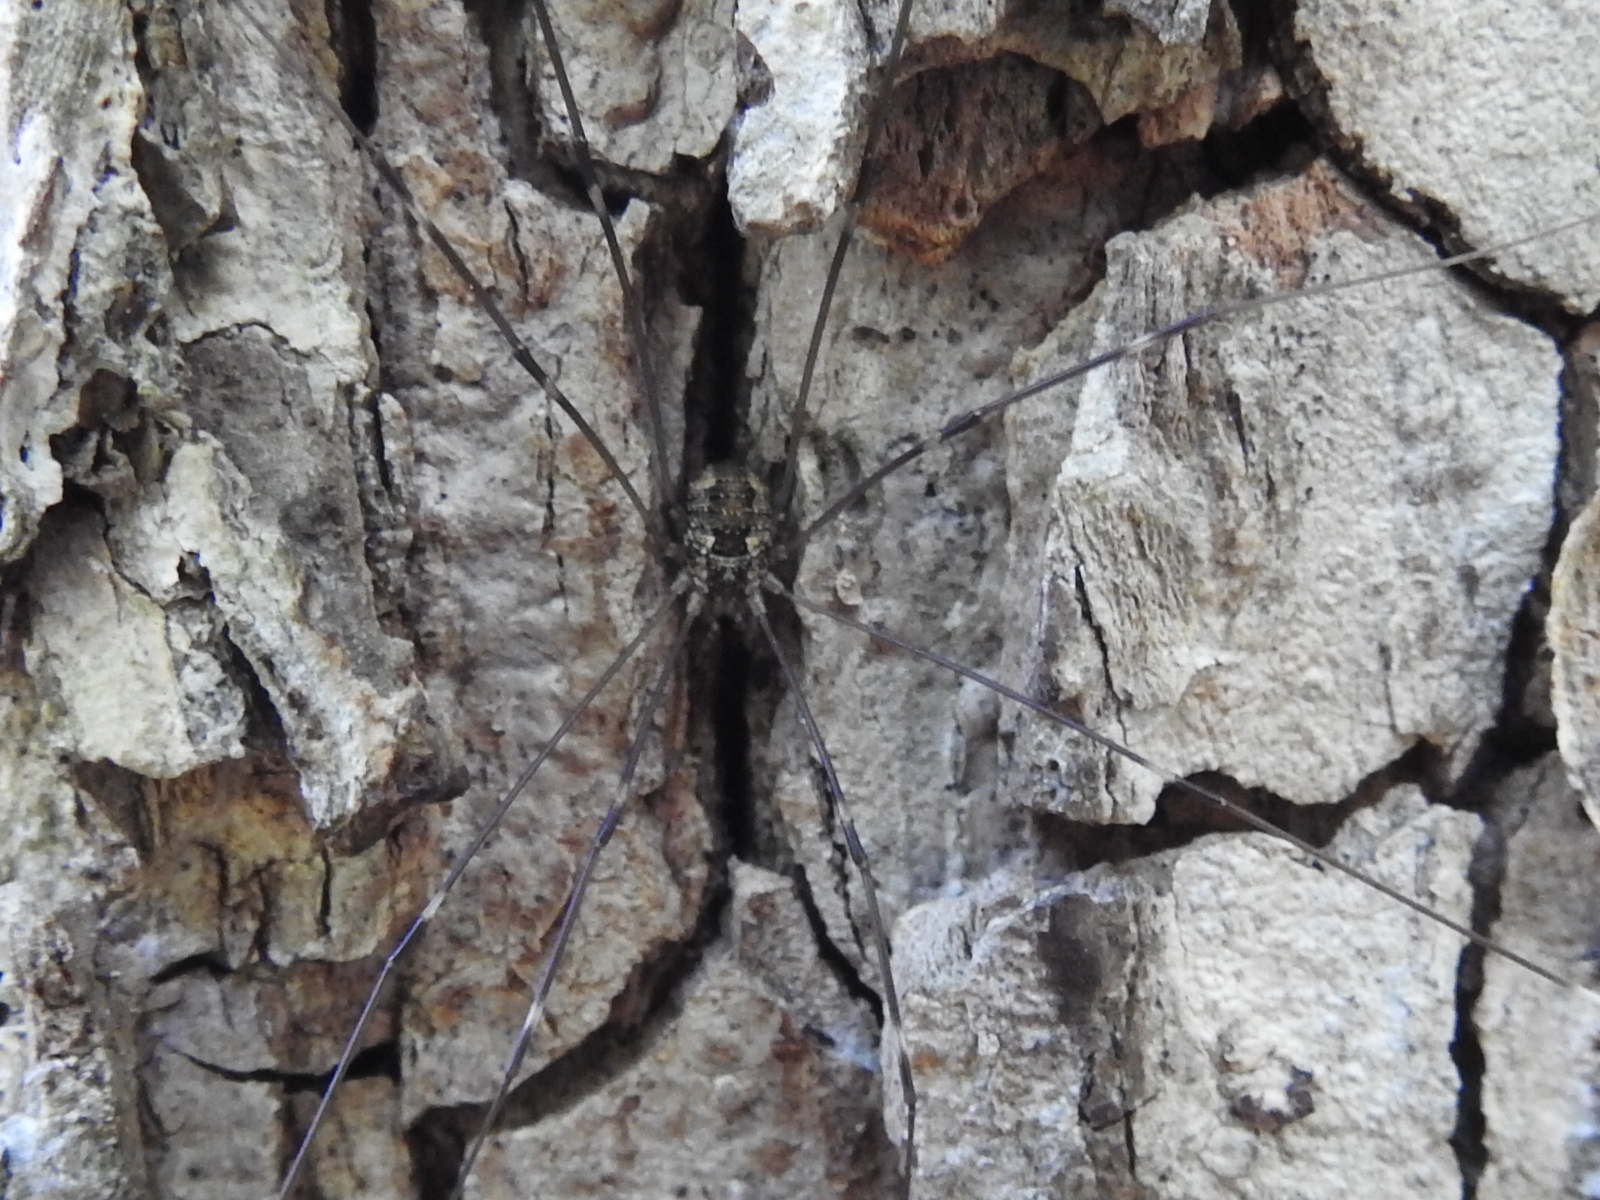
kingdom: Animalia
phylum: Arthropoda
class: Arachnida
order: Opiliones
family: Sclerosomatidae
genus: Leiobunum
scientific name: Leiobunum townsendi
